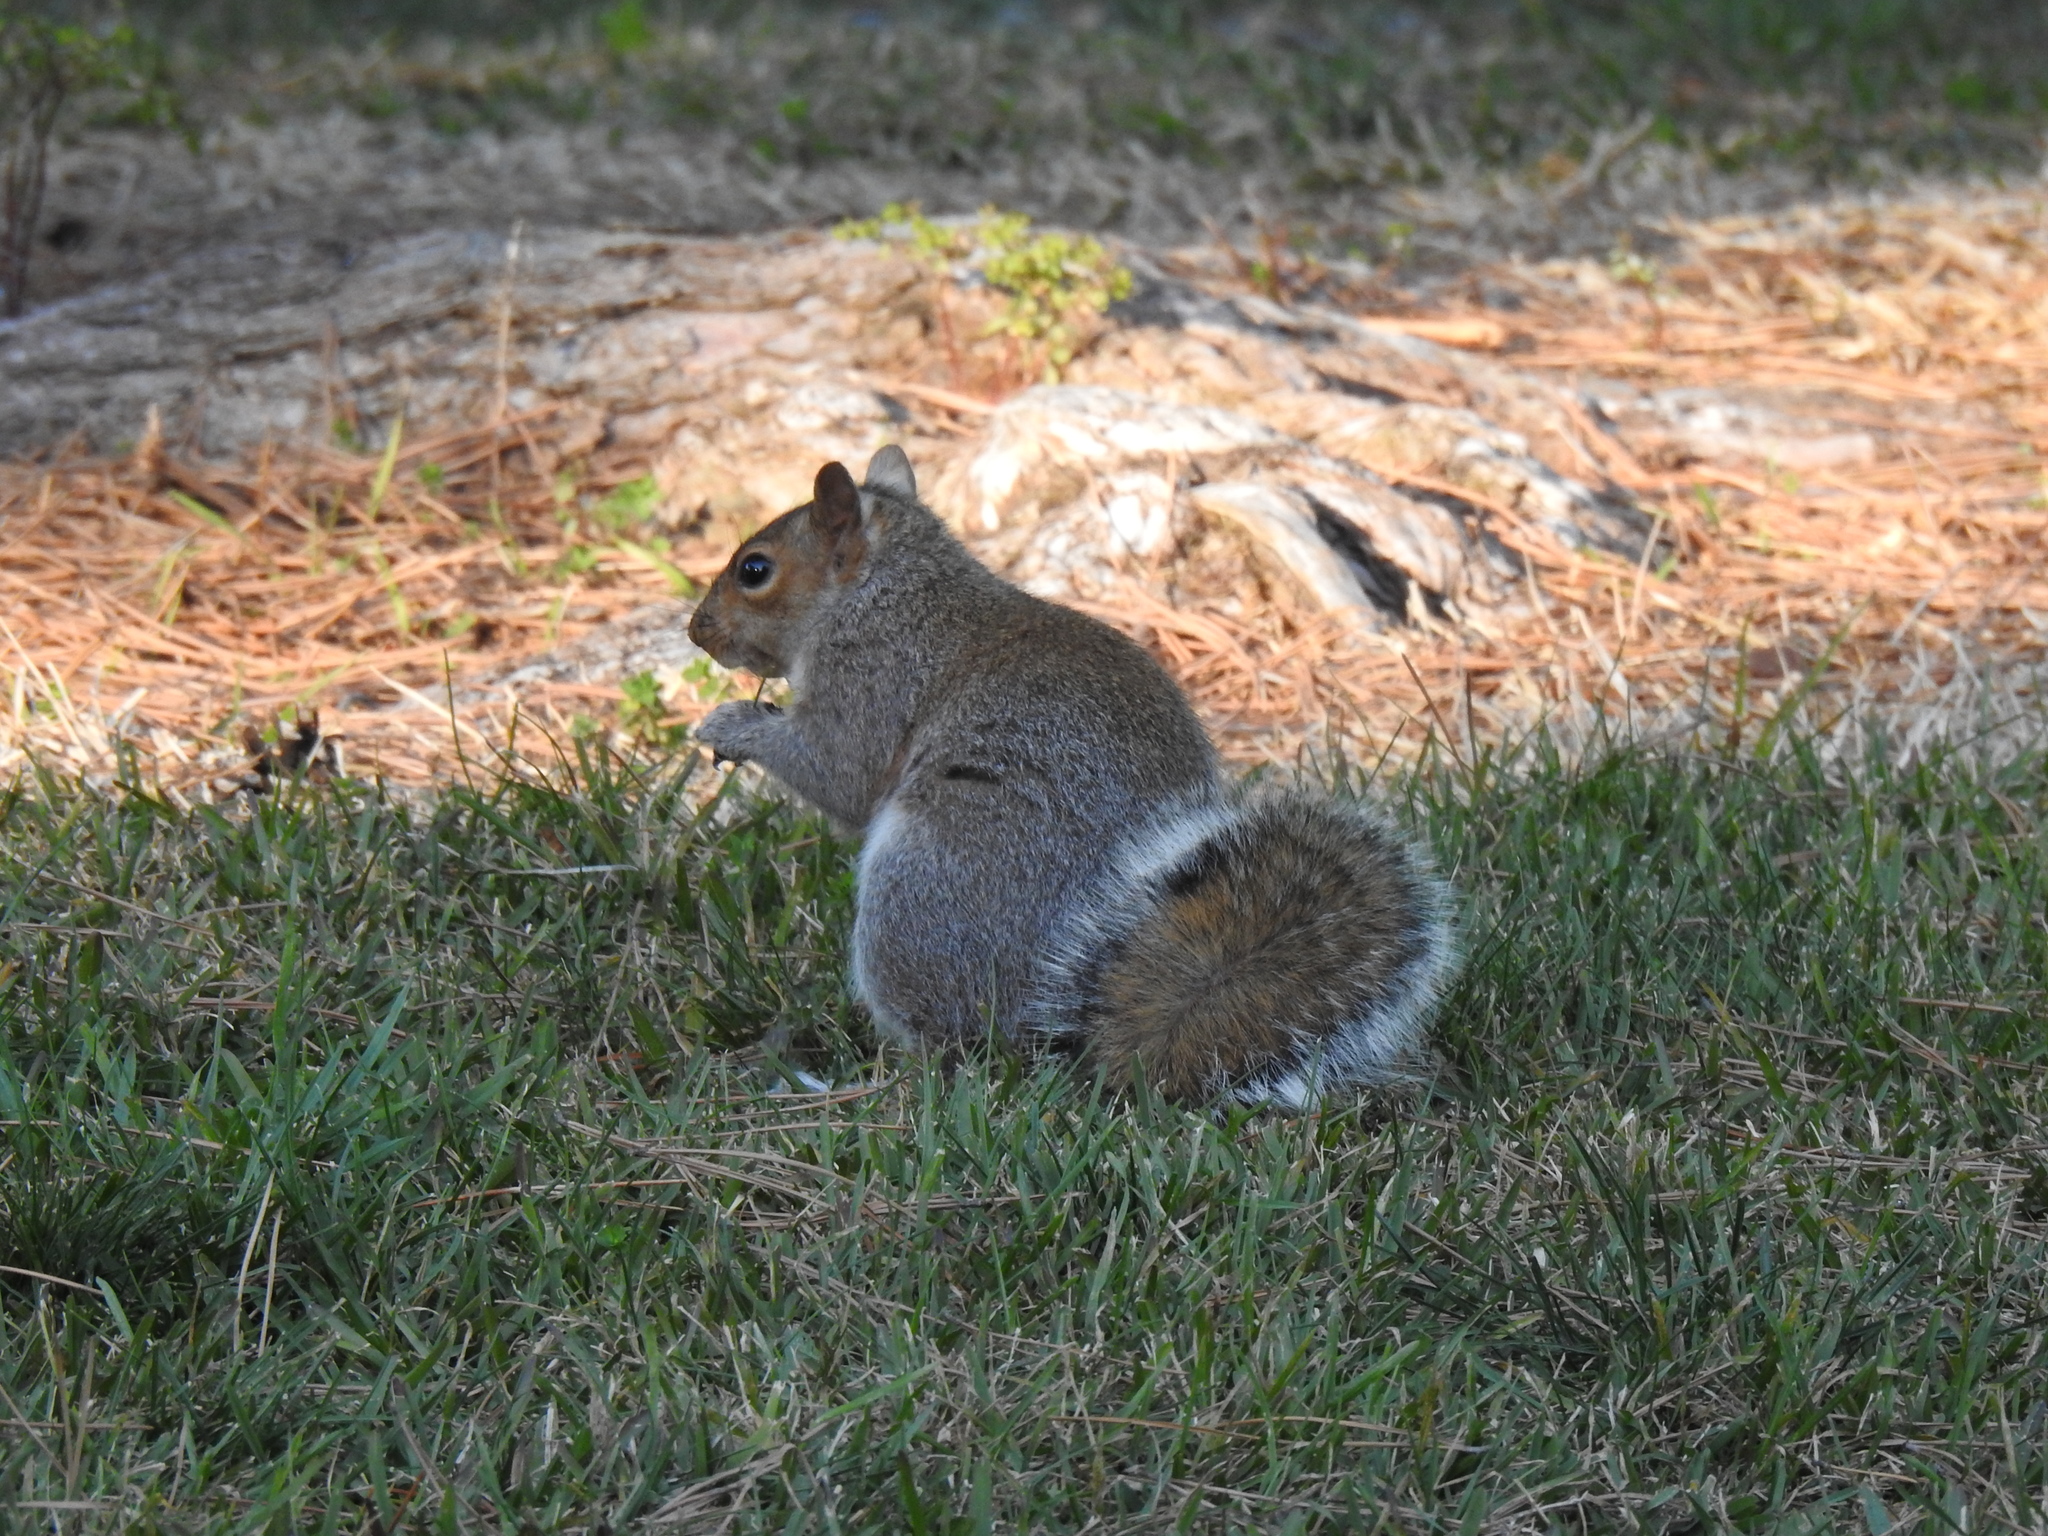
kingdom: Animalia
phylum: Chordata
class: Mammalia
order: Rodentia
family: Sciuridae
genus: Sciurus
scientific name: Sciurus carolinensis
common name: Eastern gray squirrel
